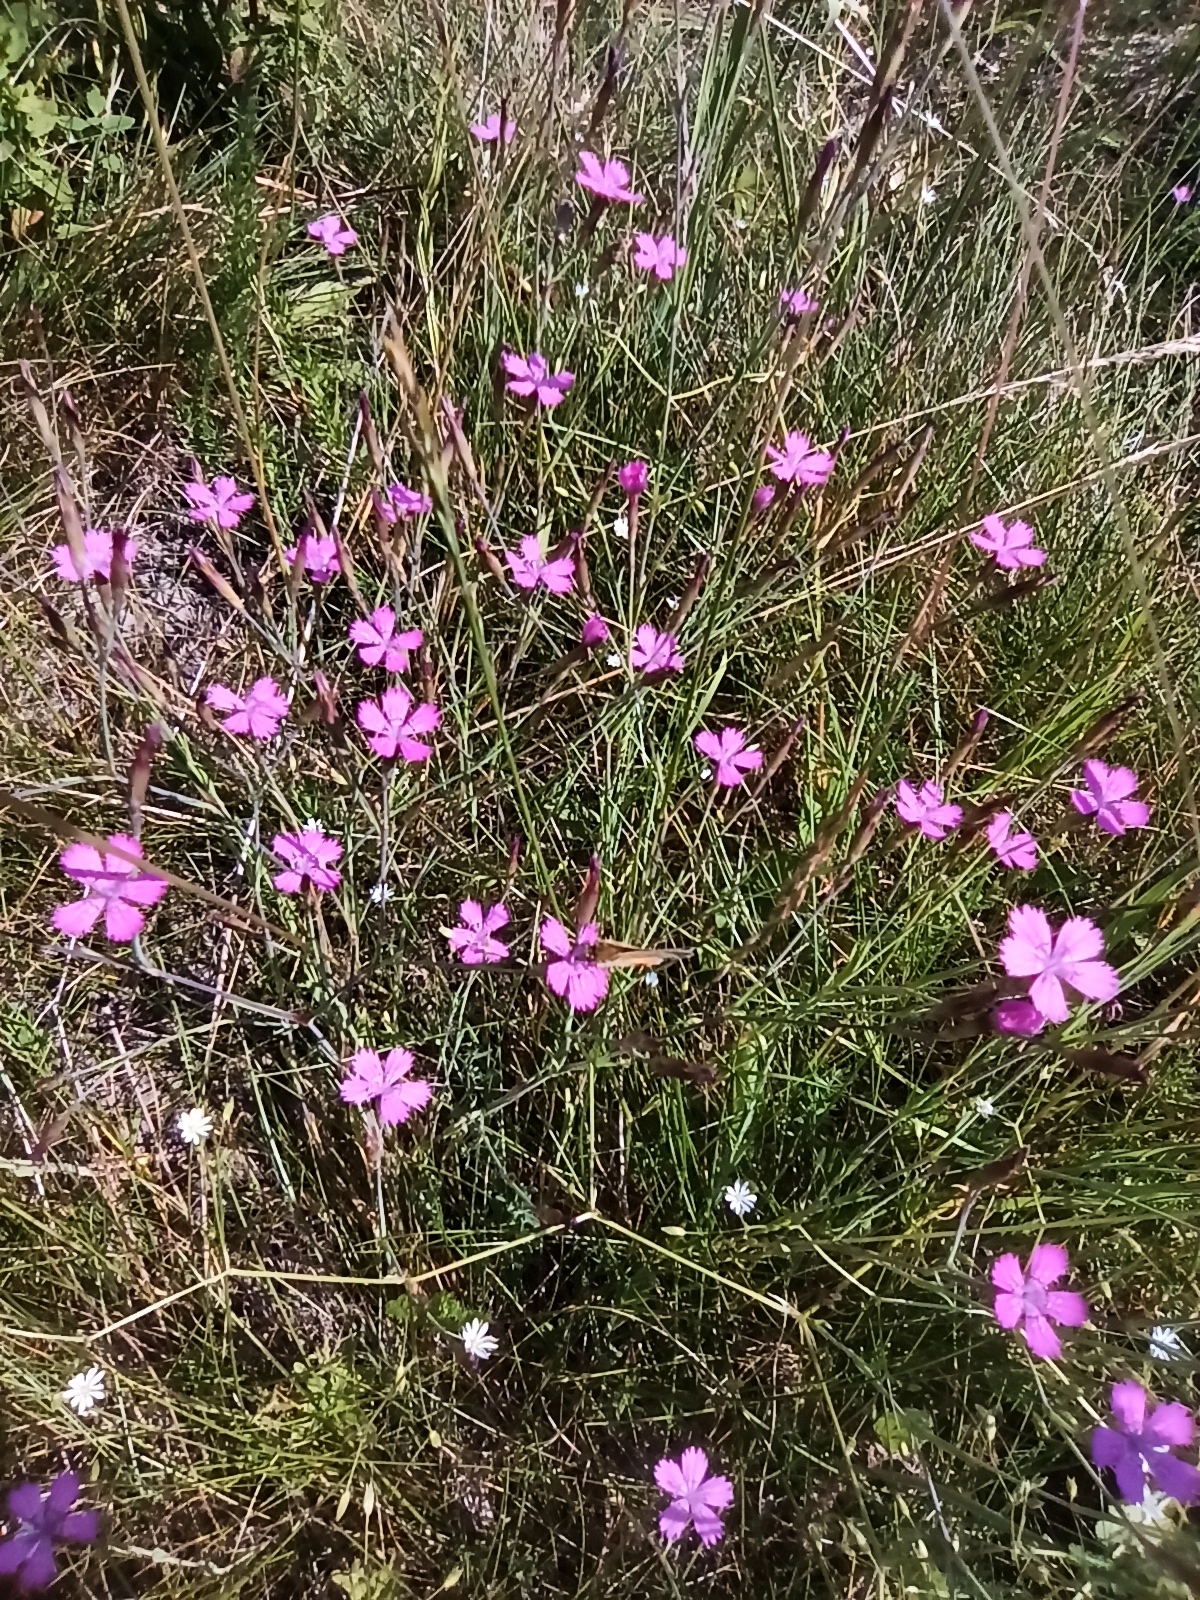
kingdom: Plantae
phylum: Tracheophyta
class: Magnoliopsida
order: Caryophyllales
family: Caryophyllaceae
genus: Dianthus
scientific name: Dianthus deltoides
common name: Maiden pink
